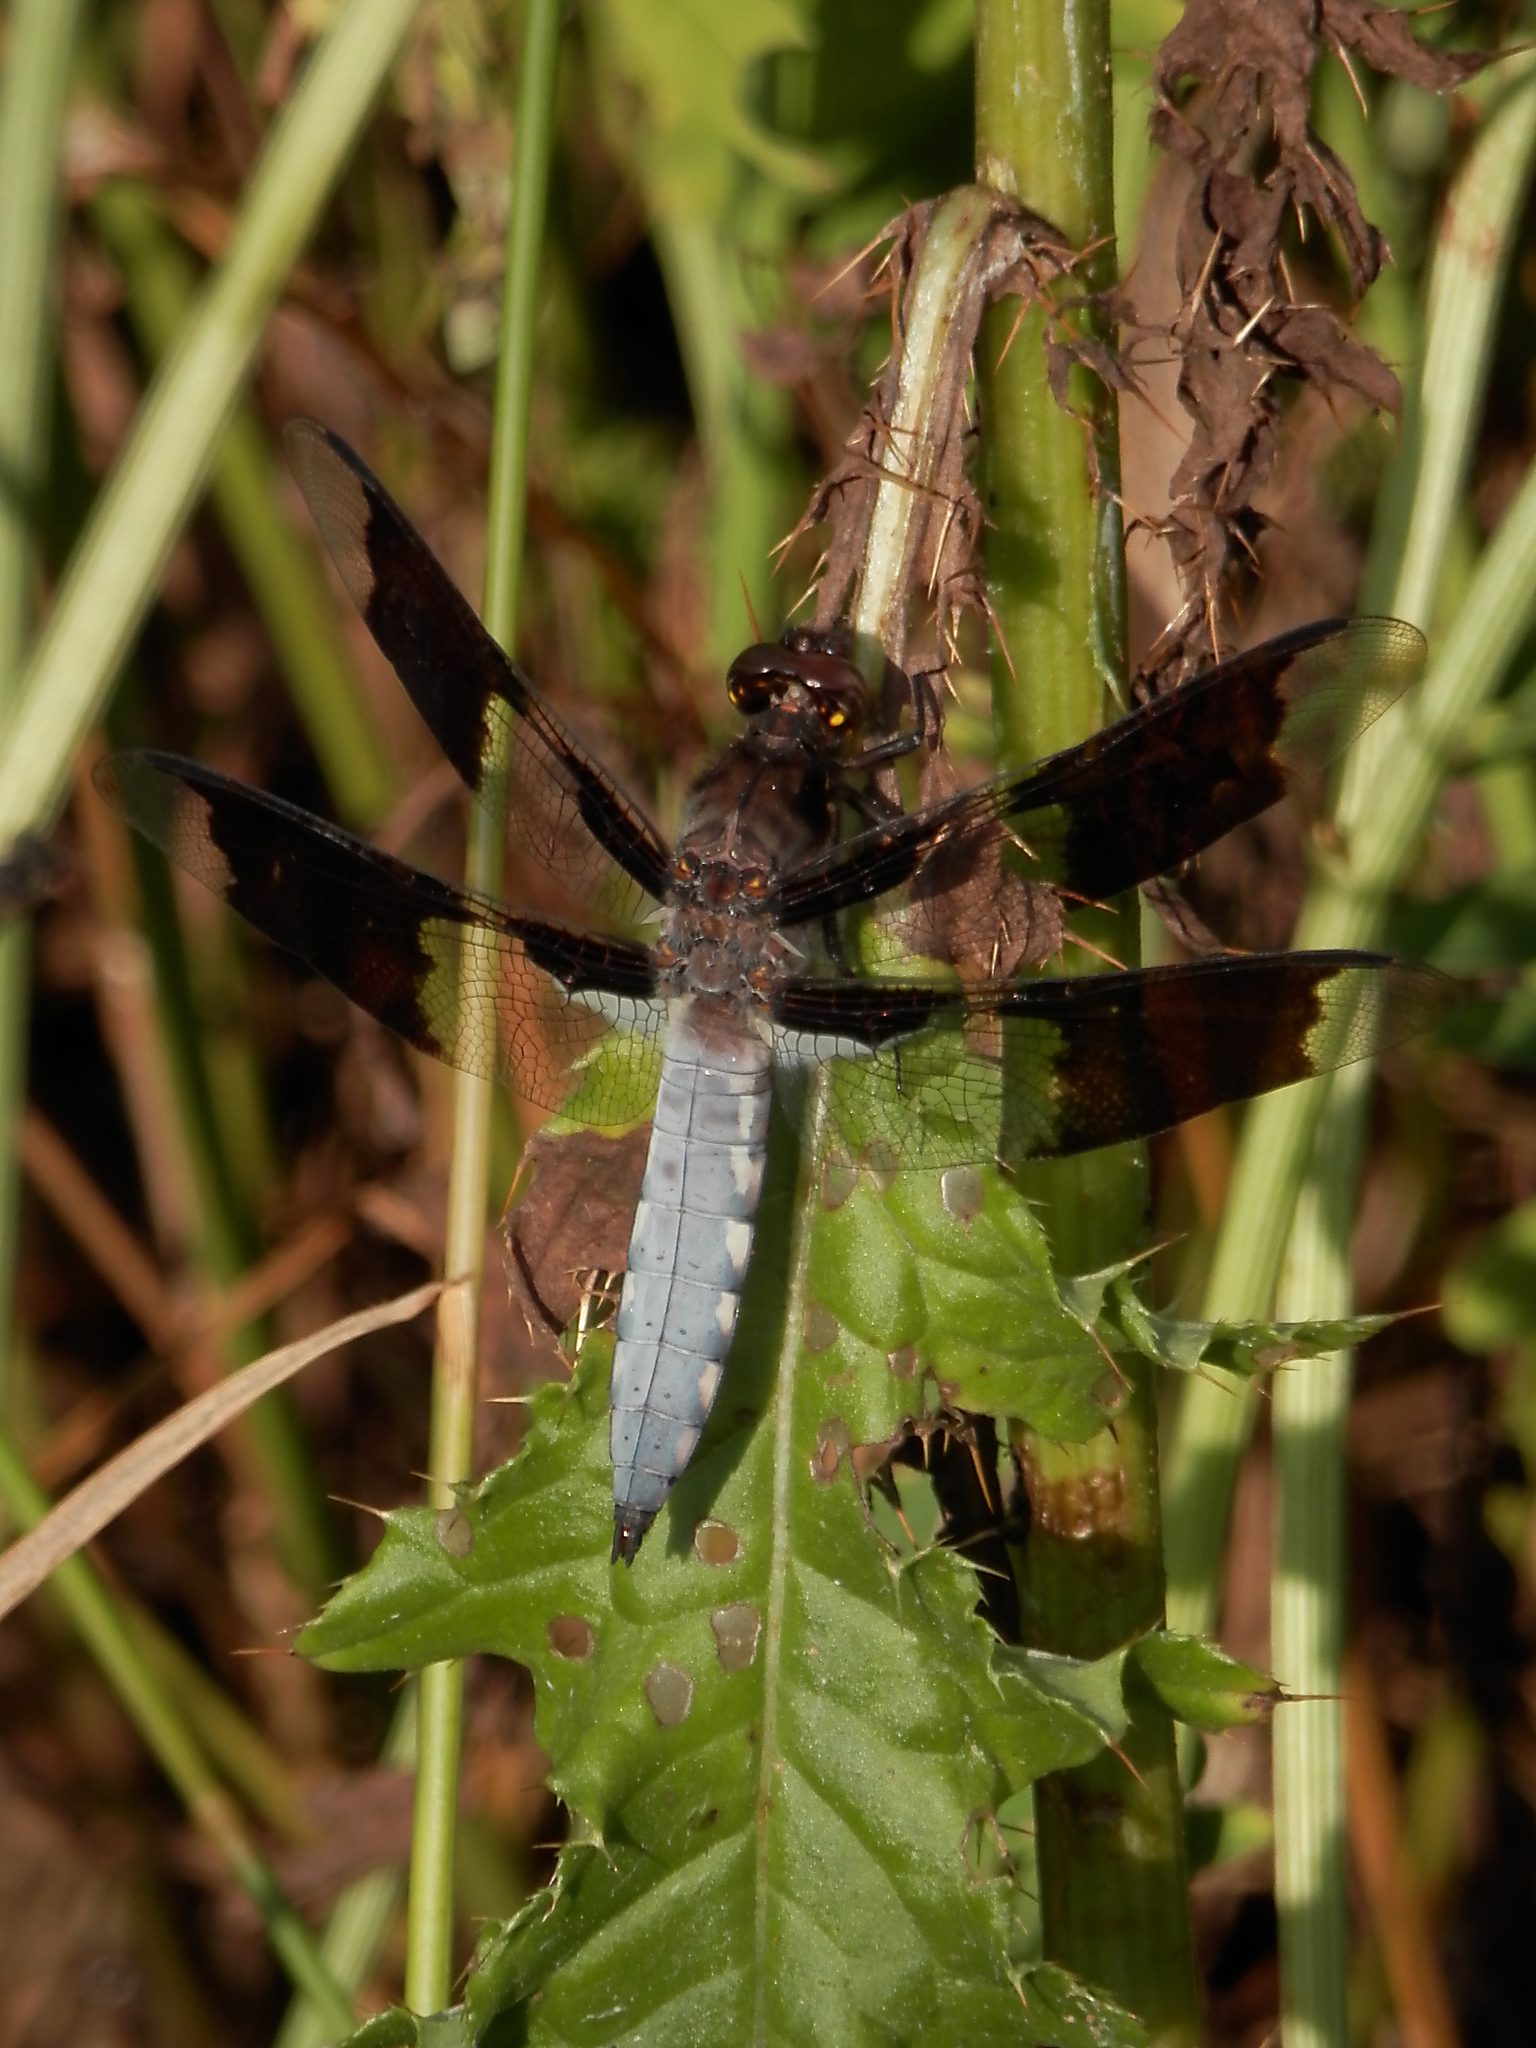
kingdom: Animalia
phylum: Arthropoda
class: Insecta
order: Odonata
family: Libellulidae
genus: Plathemis
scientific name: Plathemis lydia
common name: Common whitetail
